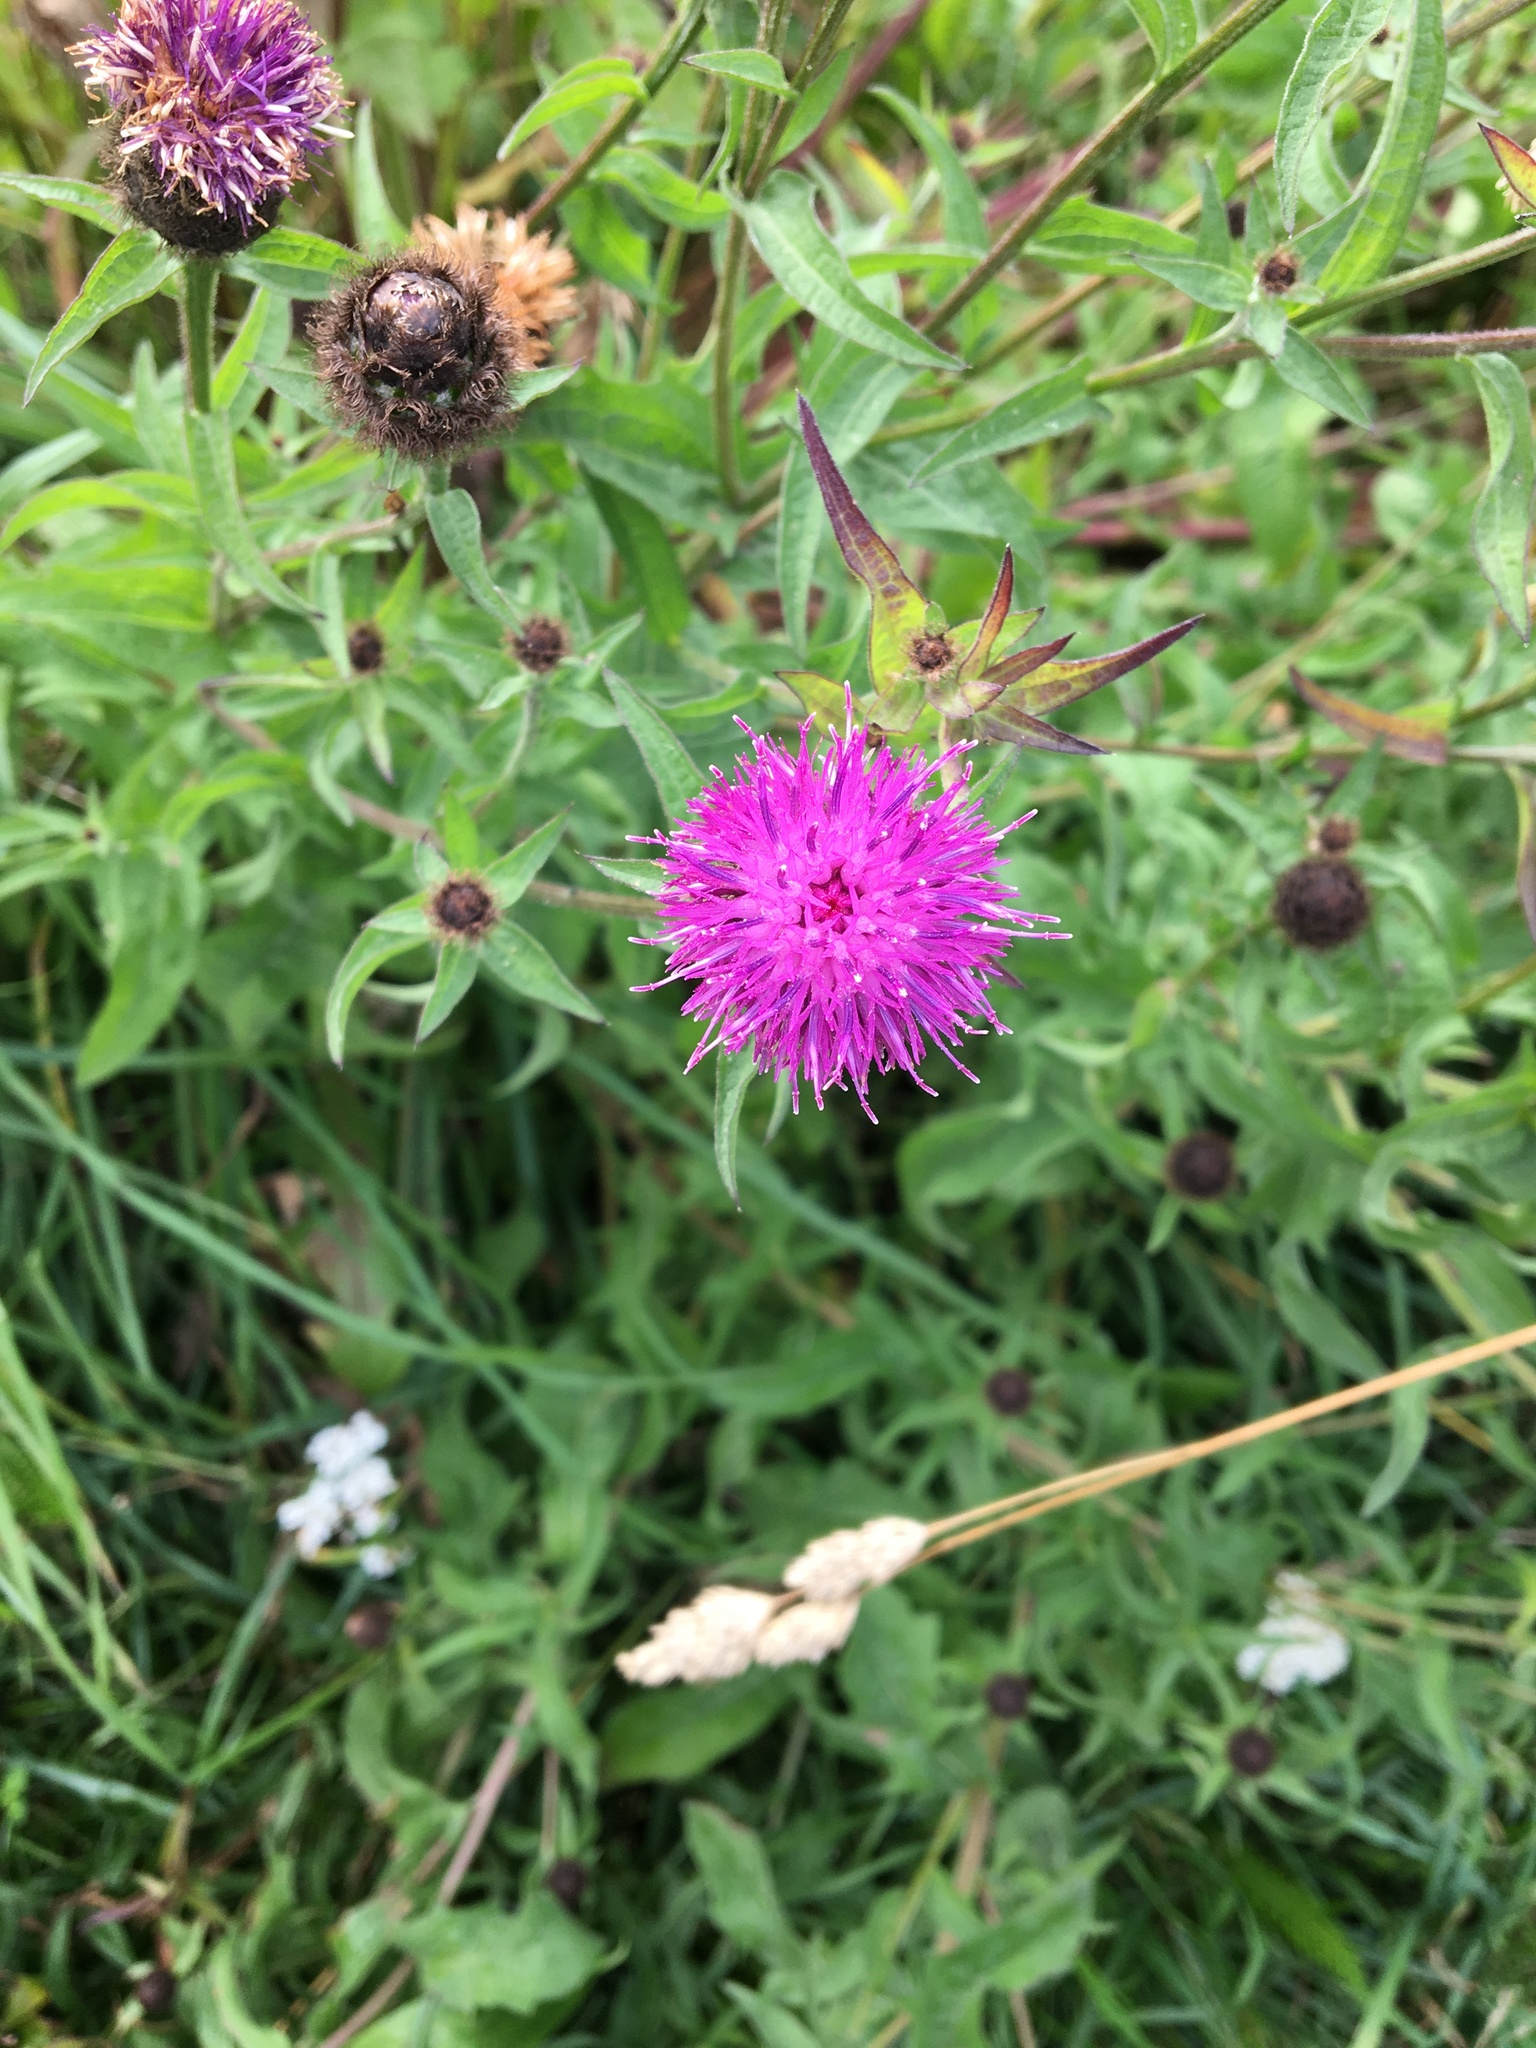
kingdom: Plantae
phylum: Tracheophyta
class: Magnoliopsida
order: Asterales
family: Asteraceae
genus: Centaurea
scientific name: Centaurea nigra
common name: Lesser knapweed
